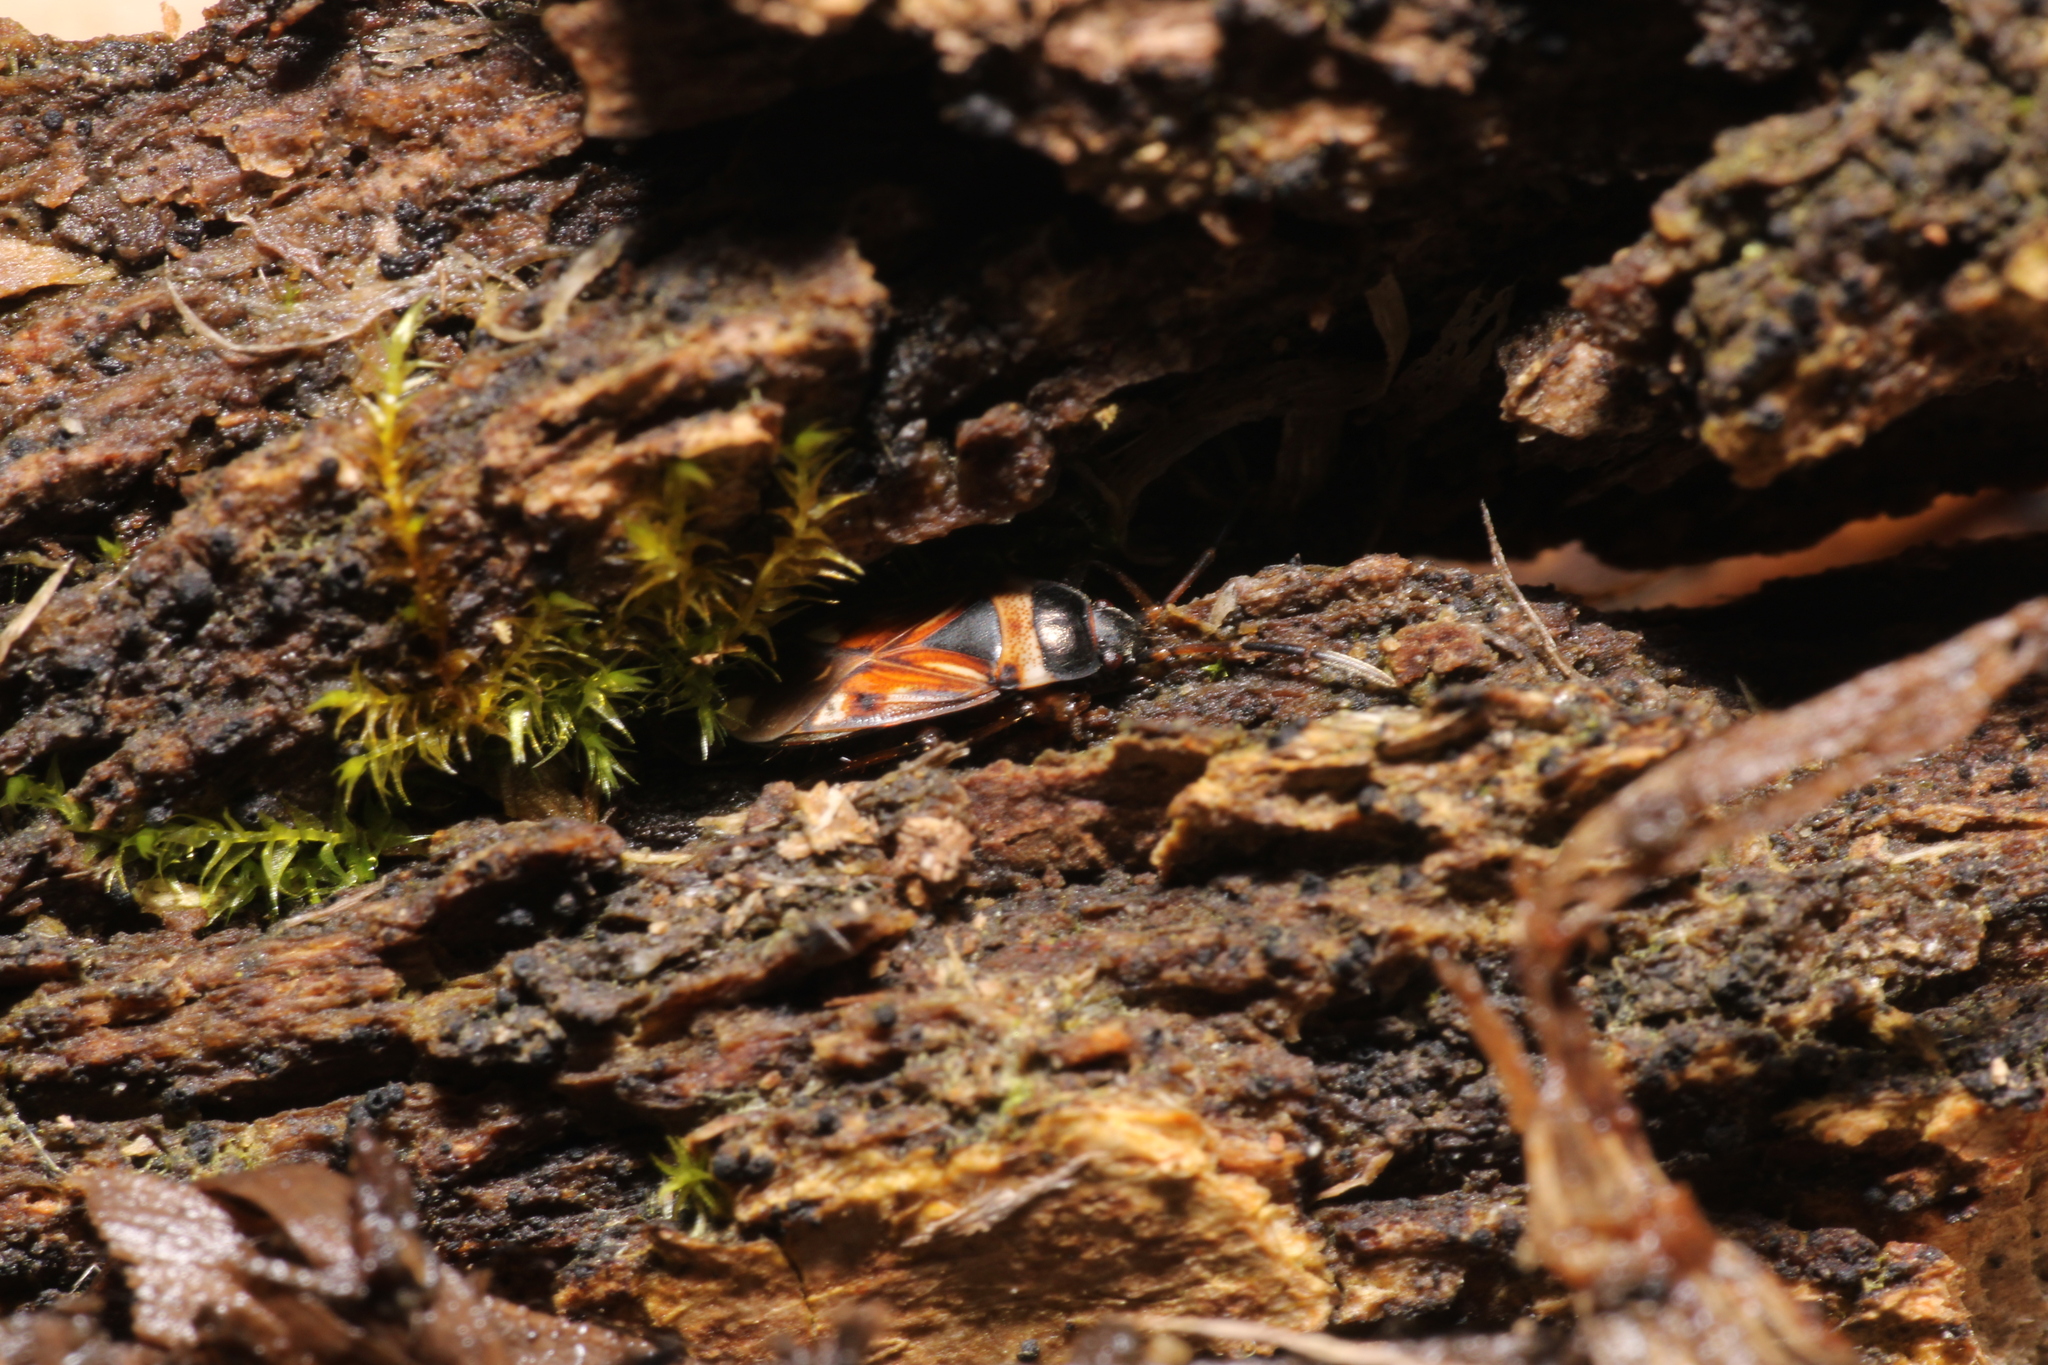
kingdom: Animalia
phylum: Arthropoda
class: Insecta
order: Hemiptera
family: Rhyparochromidae
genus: Raglius
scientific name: Raglius alboacuminatus
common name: Dirt-colored seed bug
